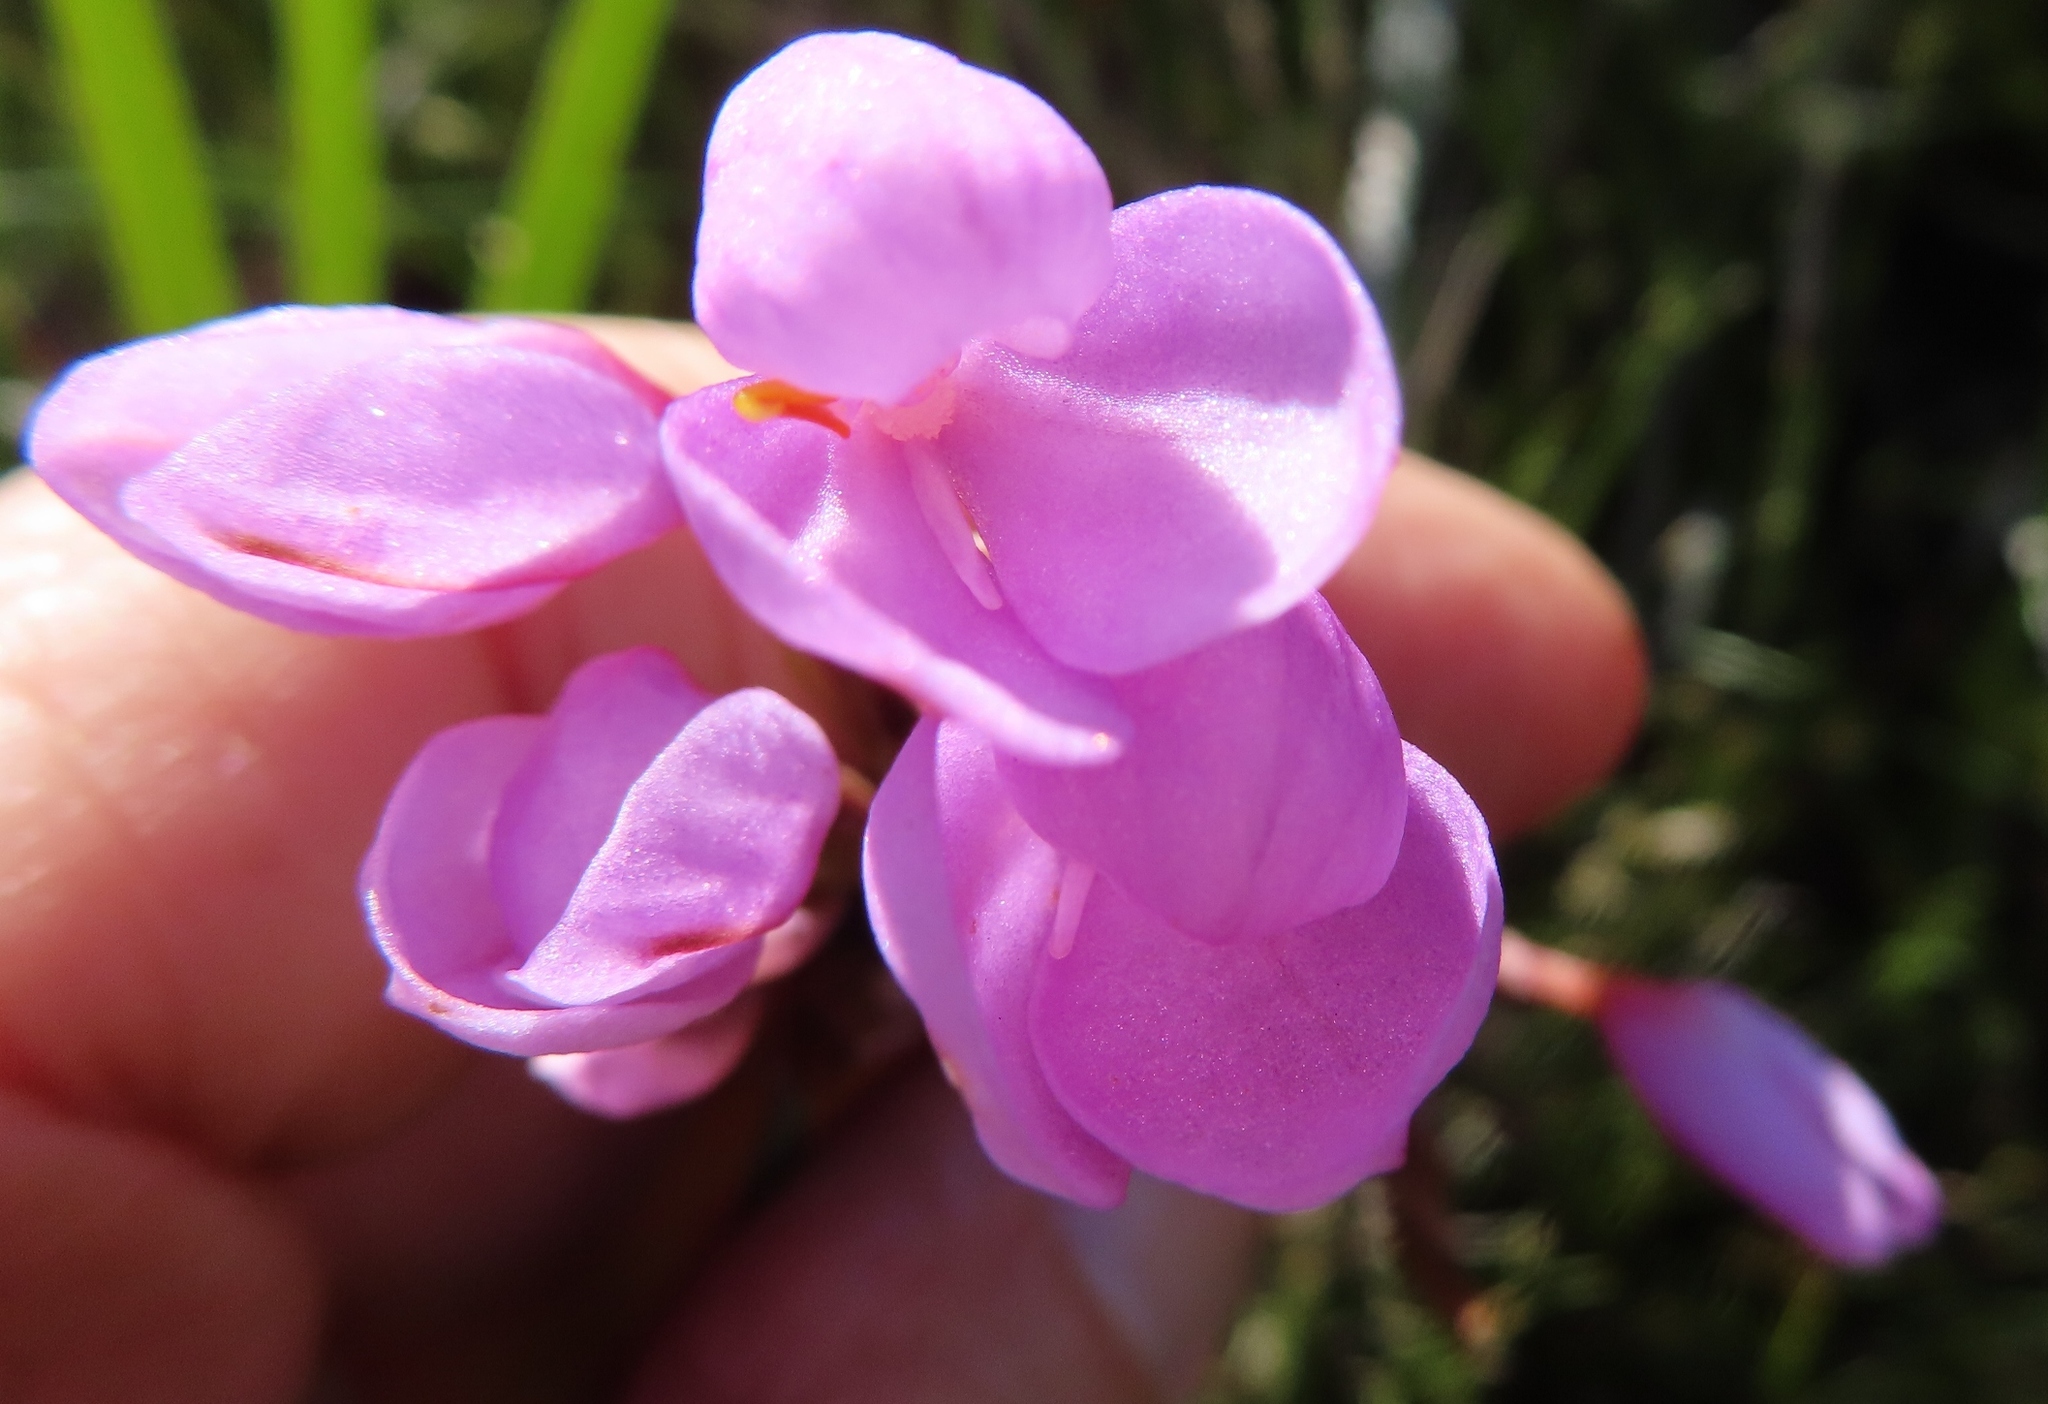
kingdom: Plantae
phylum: Tracheophyta
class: Liliopsida
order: Asparagales
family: Orchidaceae
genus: Disa
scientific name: Disa pillansii
